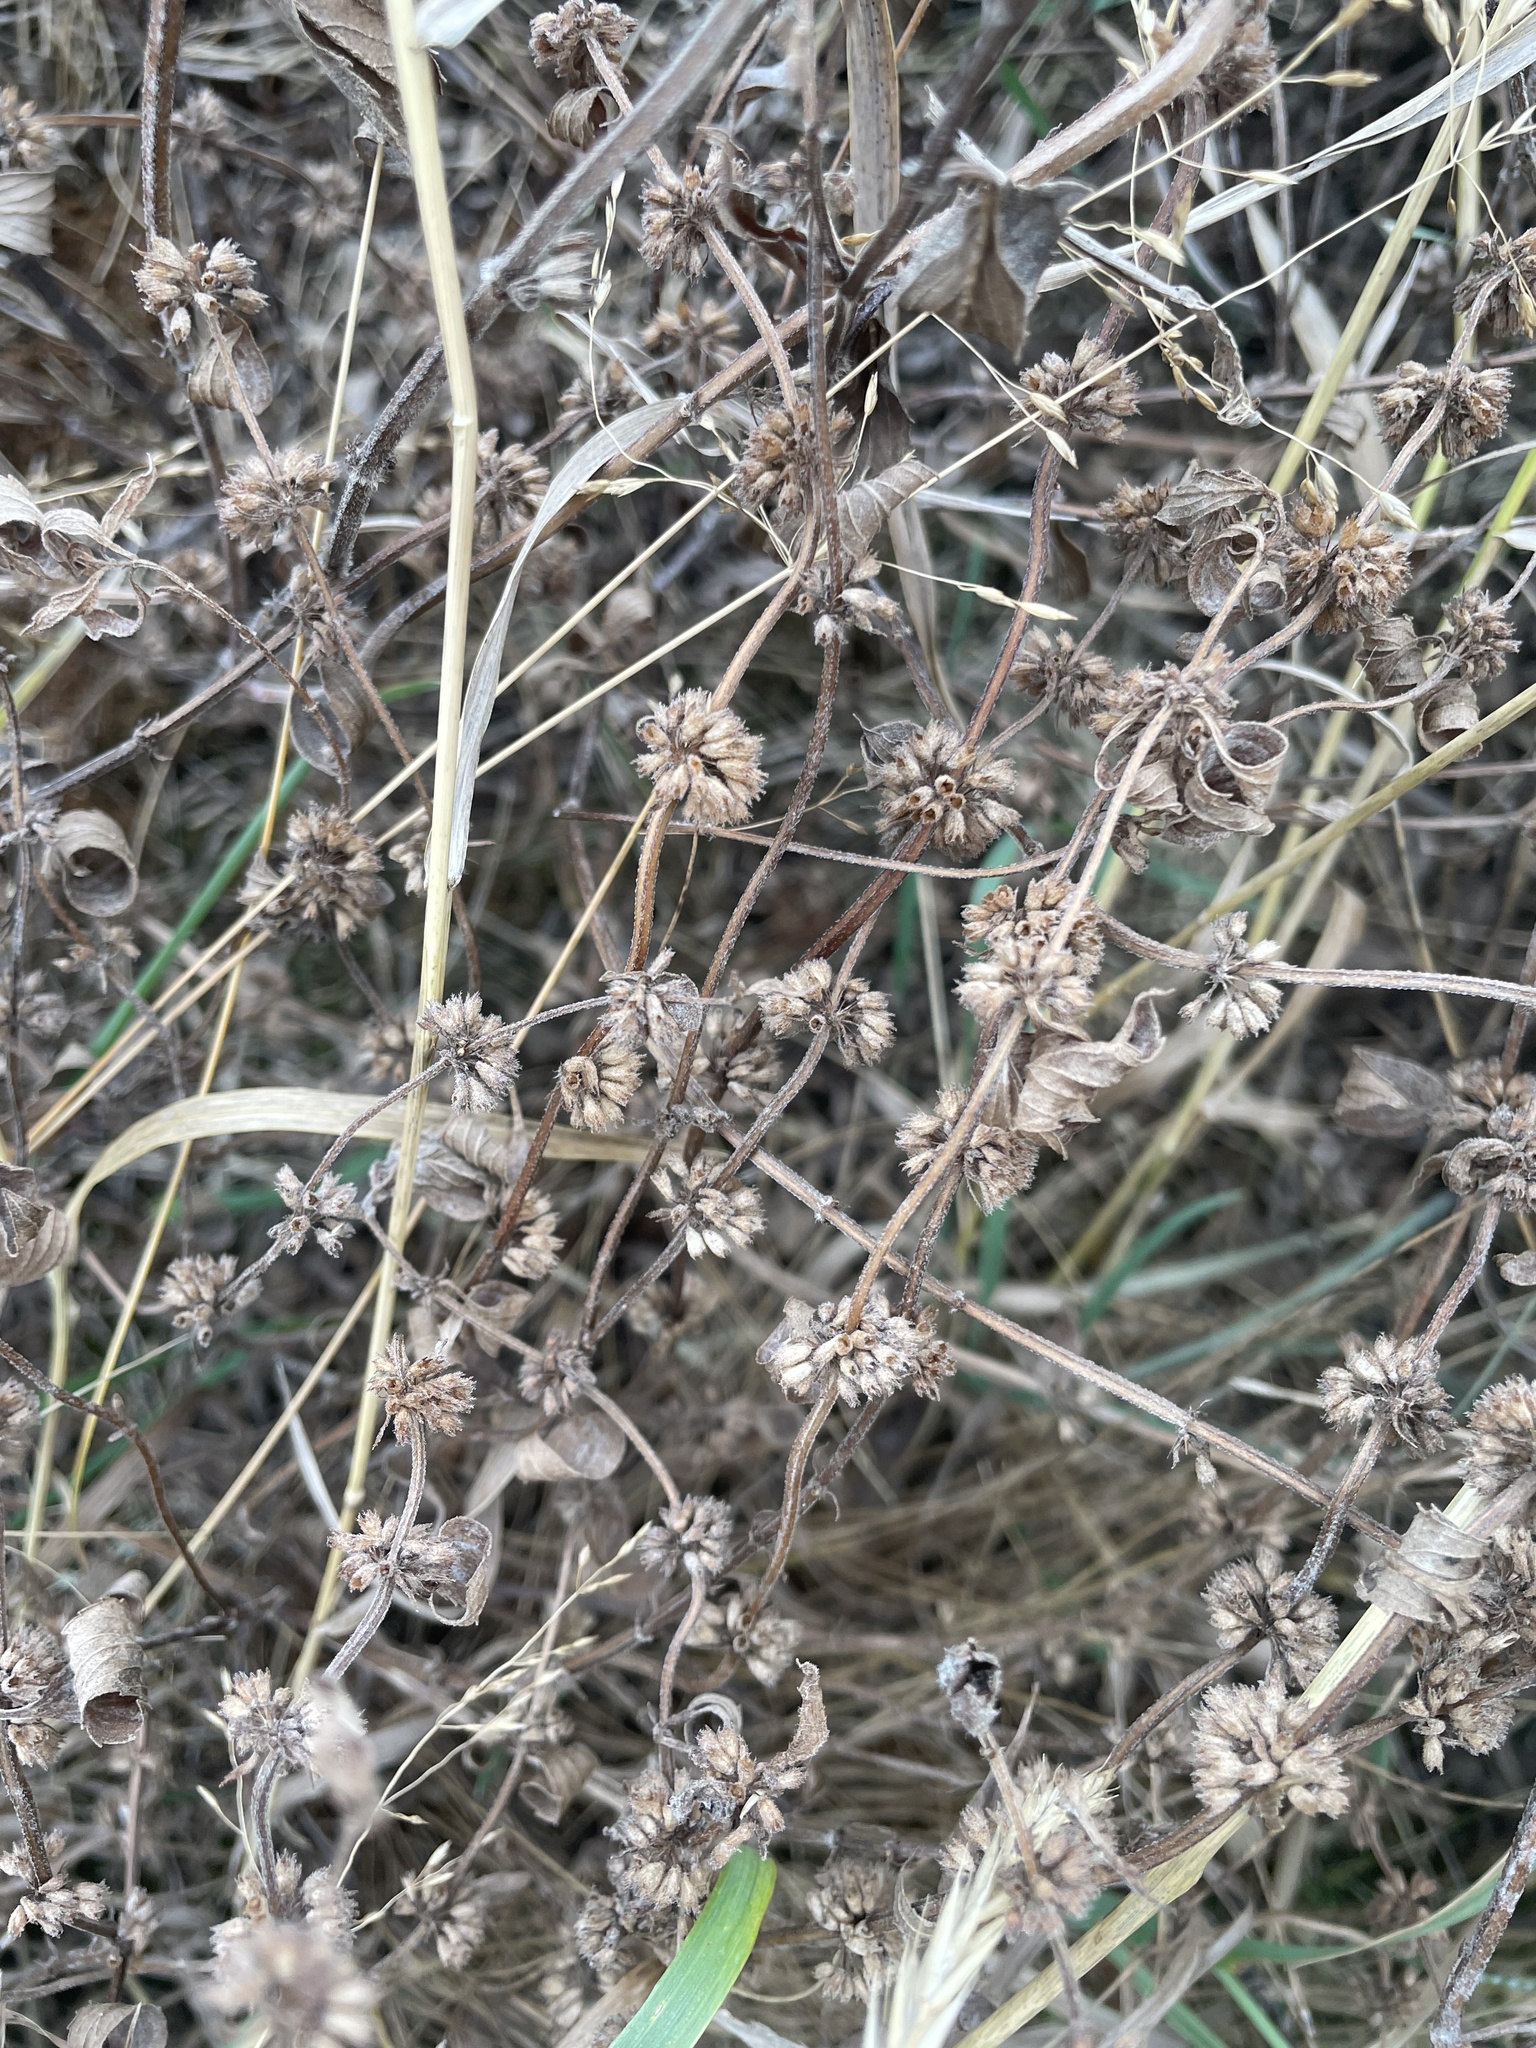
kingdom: Plantae
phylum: Tracheophyta
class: Magnoliopsida
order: Lamiales
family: Lamiaceae
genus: Mentha
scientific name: Mentha canadensis
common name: American corn mint
